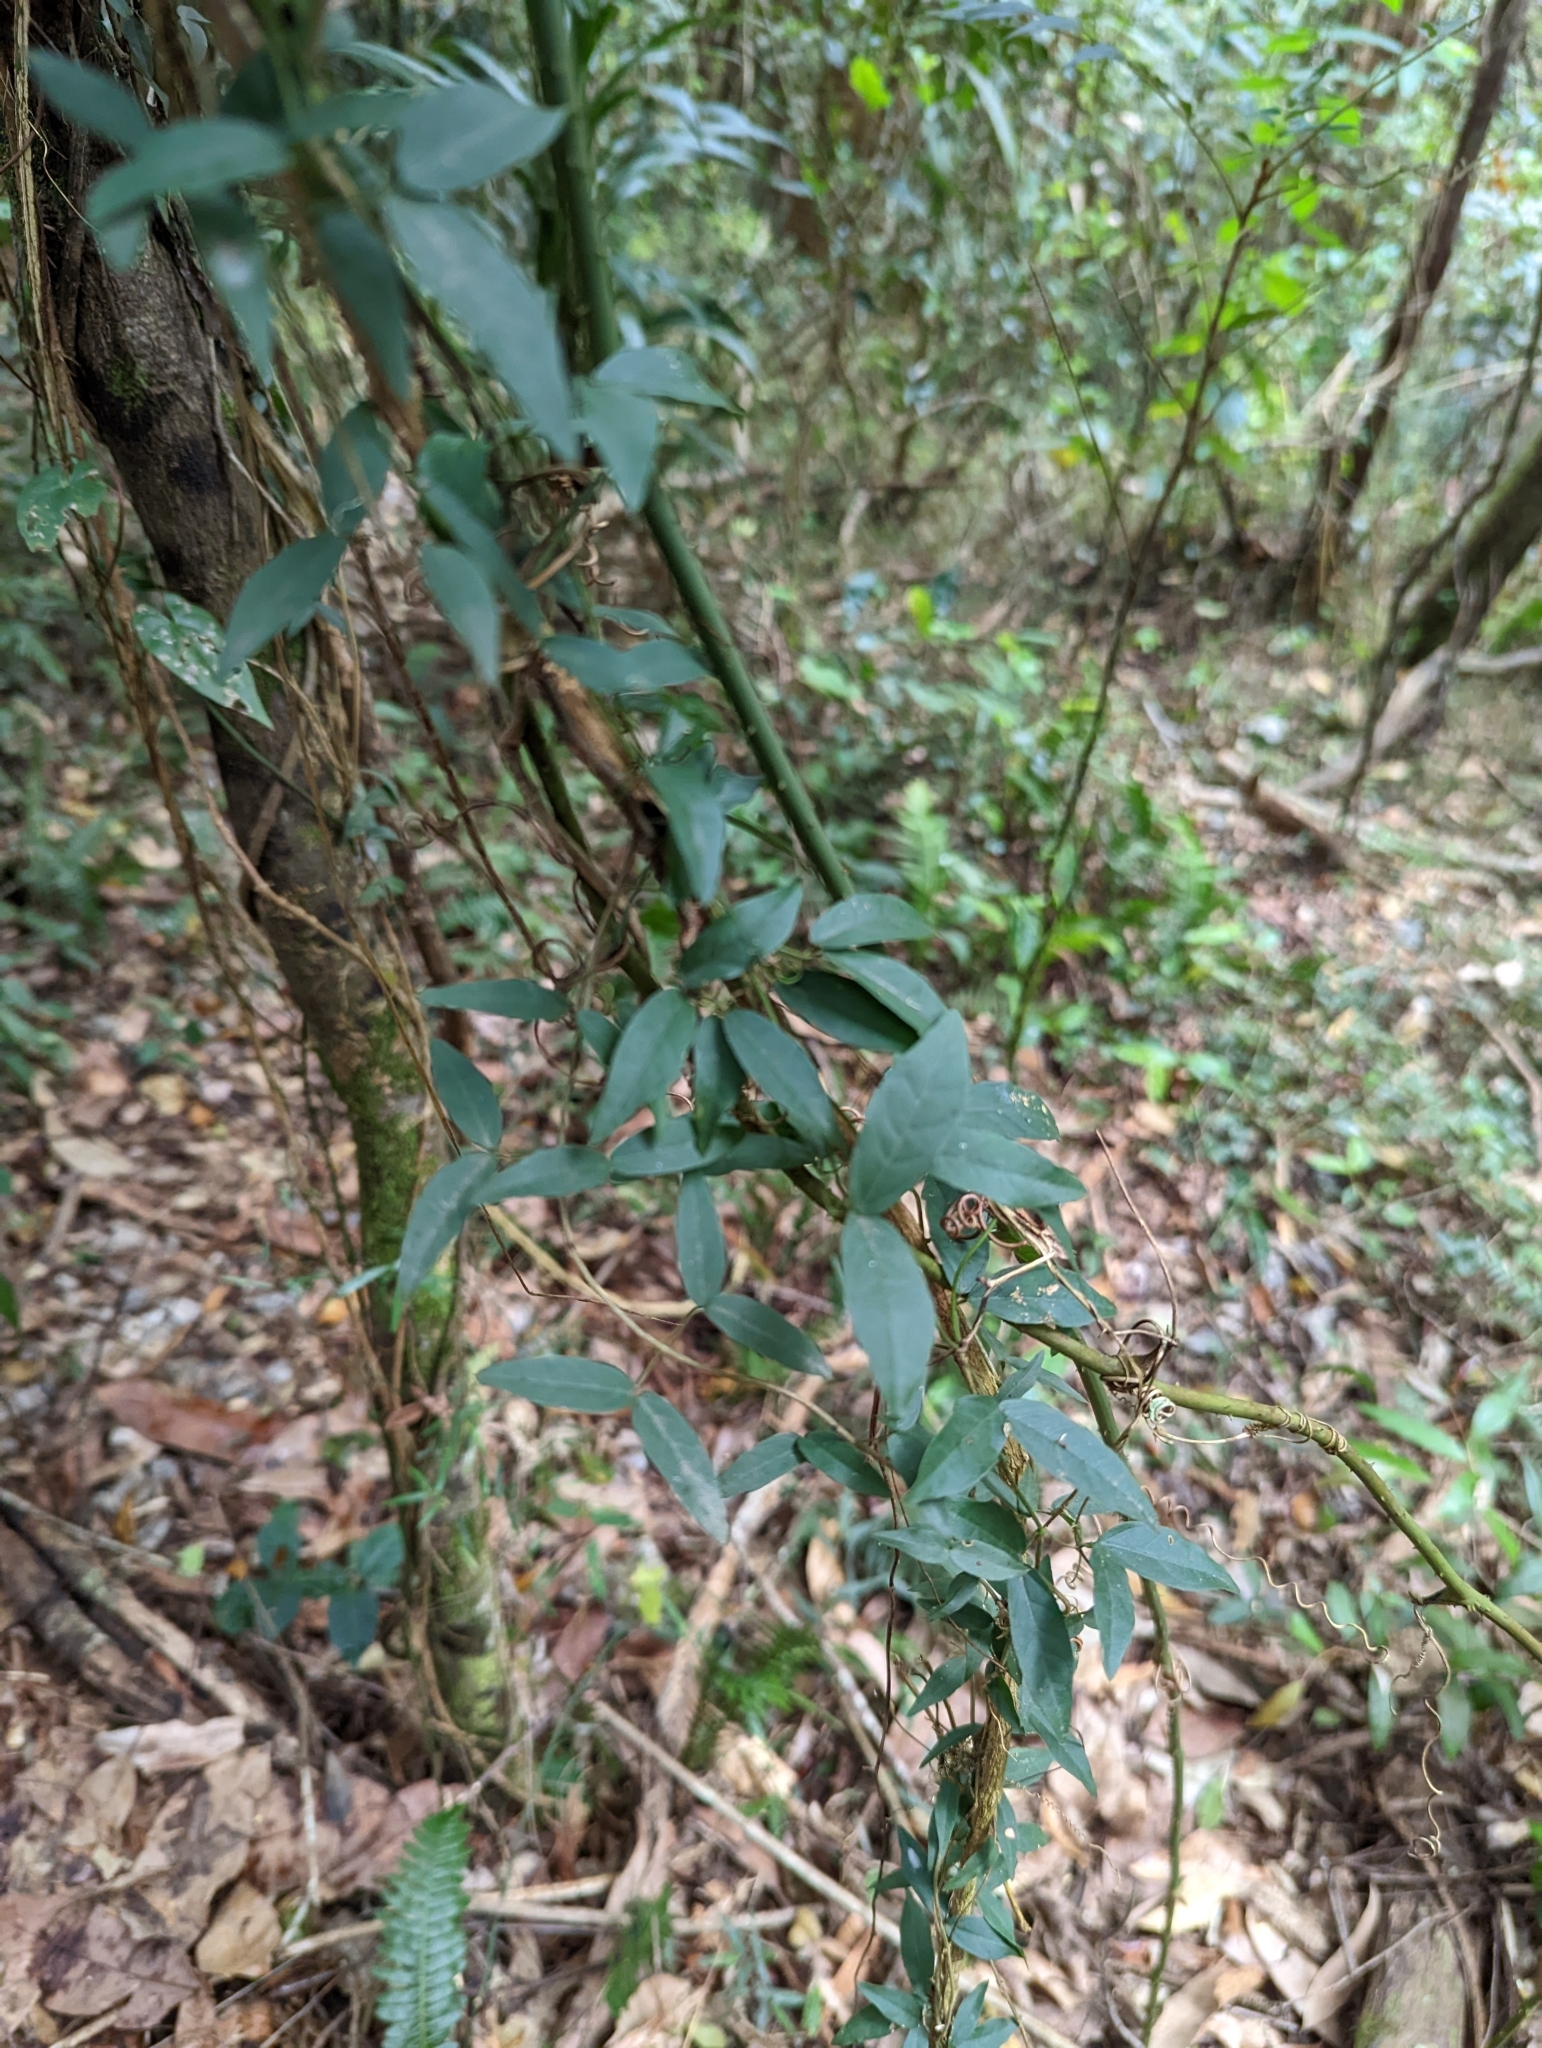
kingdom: Plantae
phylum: Tracheophyta
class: Magnoliopsida
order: Lamiales
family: Bignoniaceae
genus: Dolichandra
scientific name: Dolichandra unguis-cati
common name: Catclaw vine
